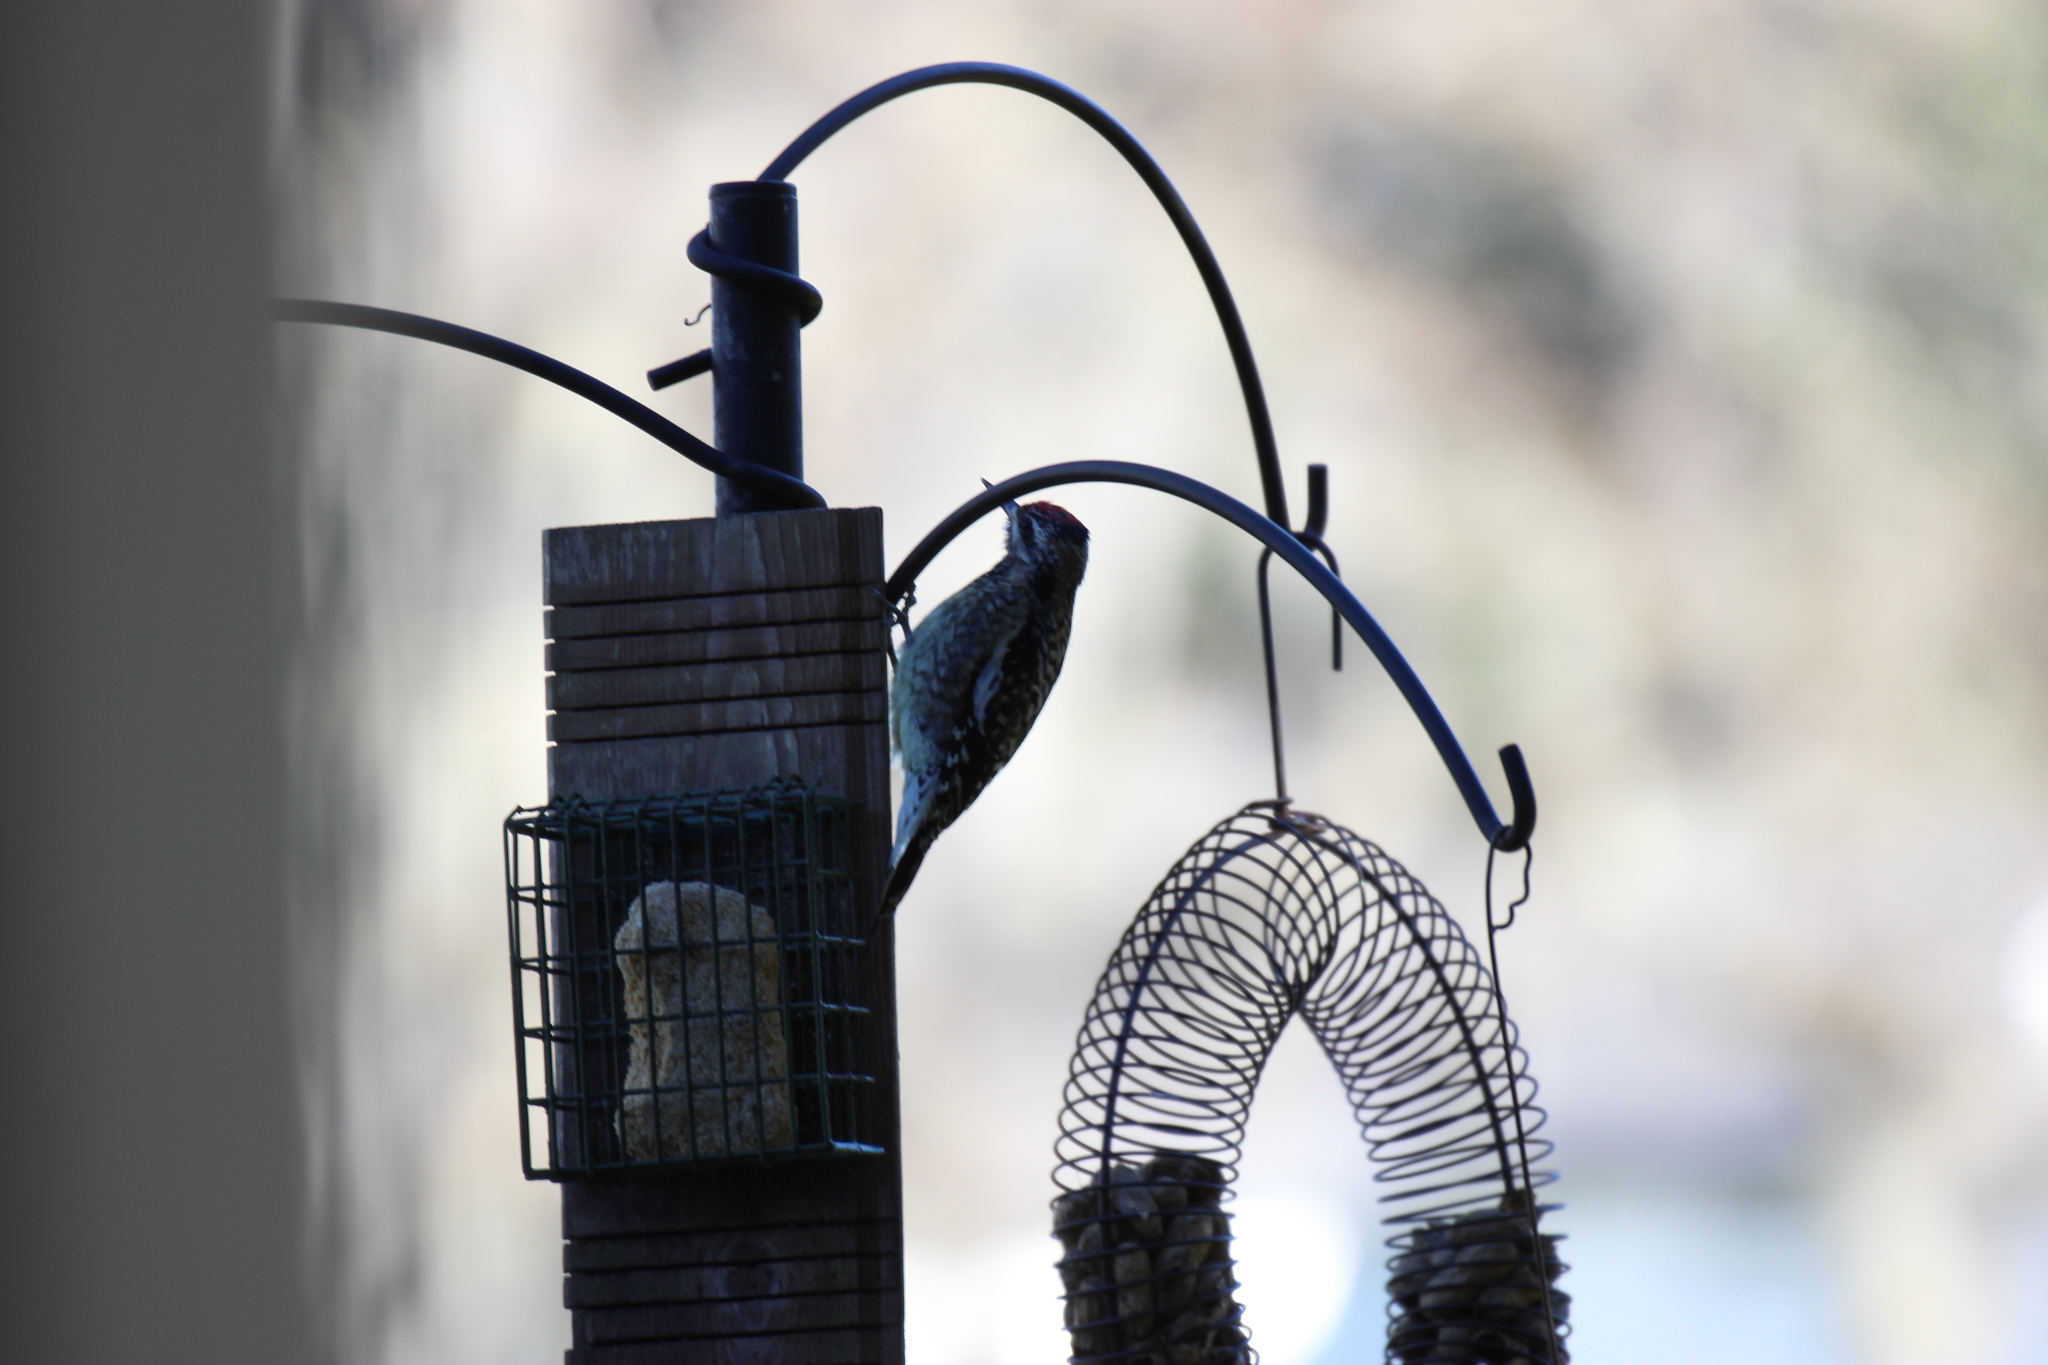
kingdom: Animalia
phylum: Chordata
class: Aves
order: Piciformes
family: Picidae
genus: Sphyrapicus
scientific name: Sphyrapicus varius
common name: Yellow-bellied sapsucker
